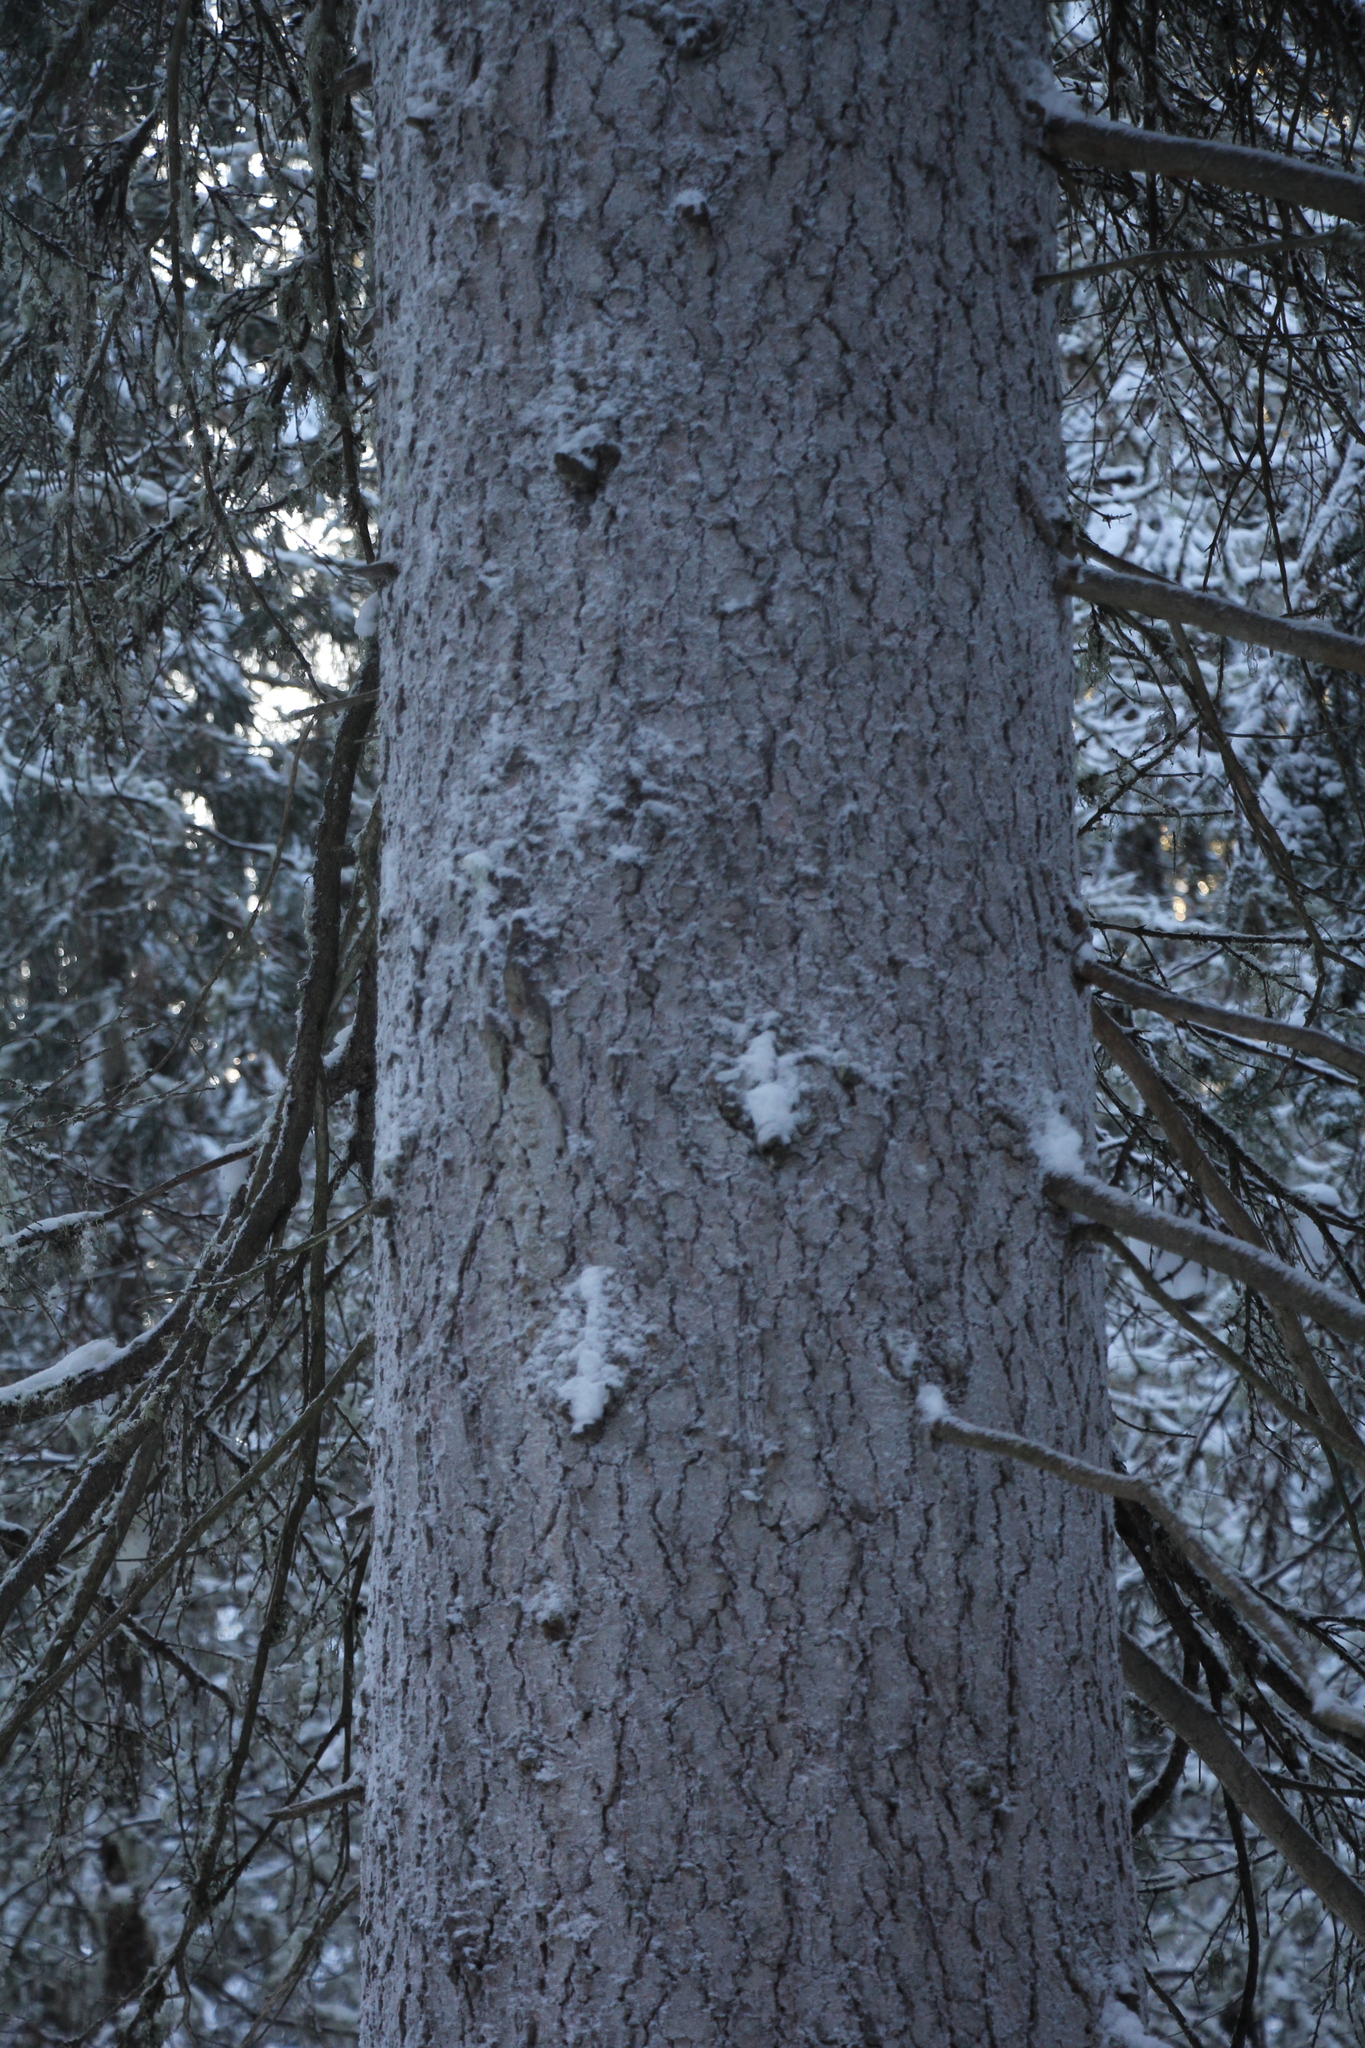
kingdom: Plantae
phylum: Tracheophyta
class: Pinopsida
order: Pinales
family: Pinaceae
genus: Picea
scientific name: Picea obovata
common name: Siberian spruce
